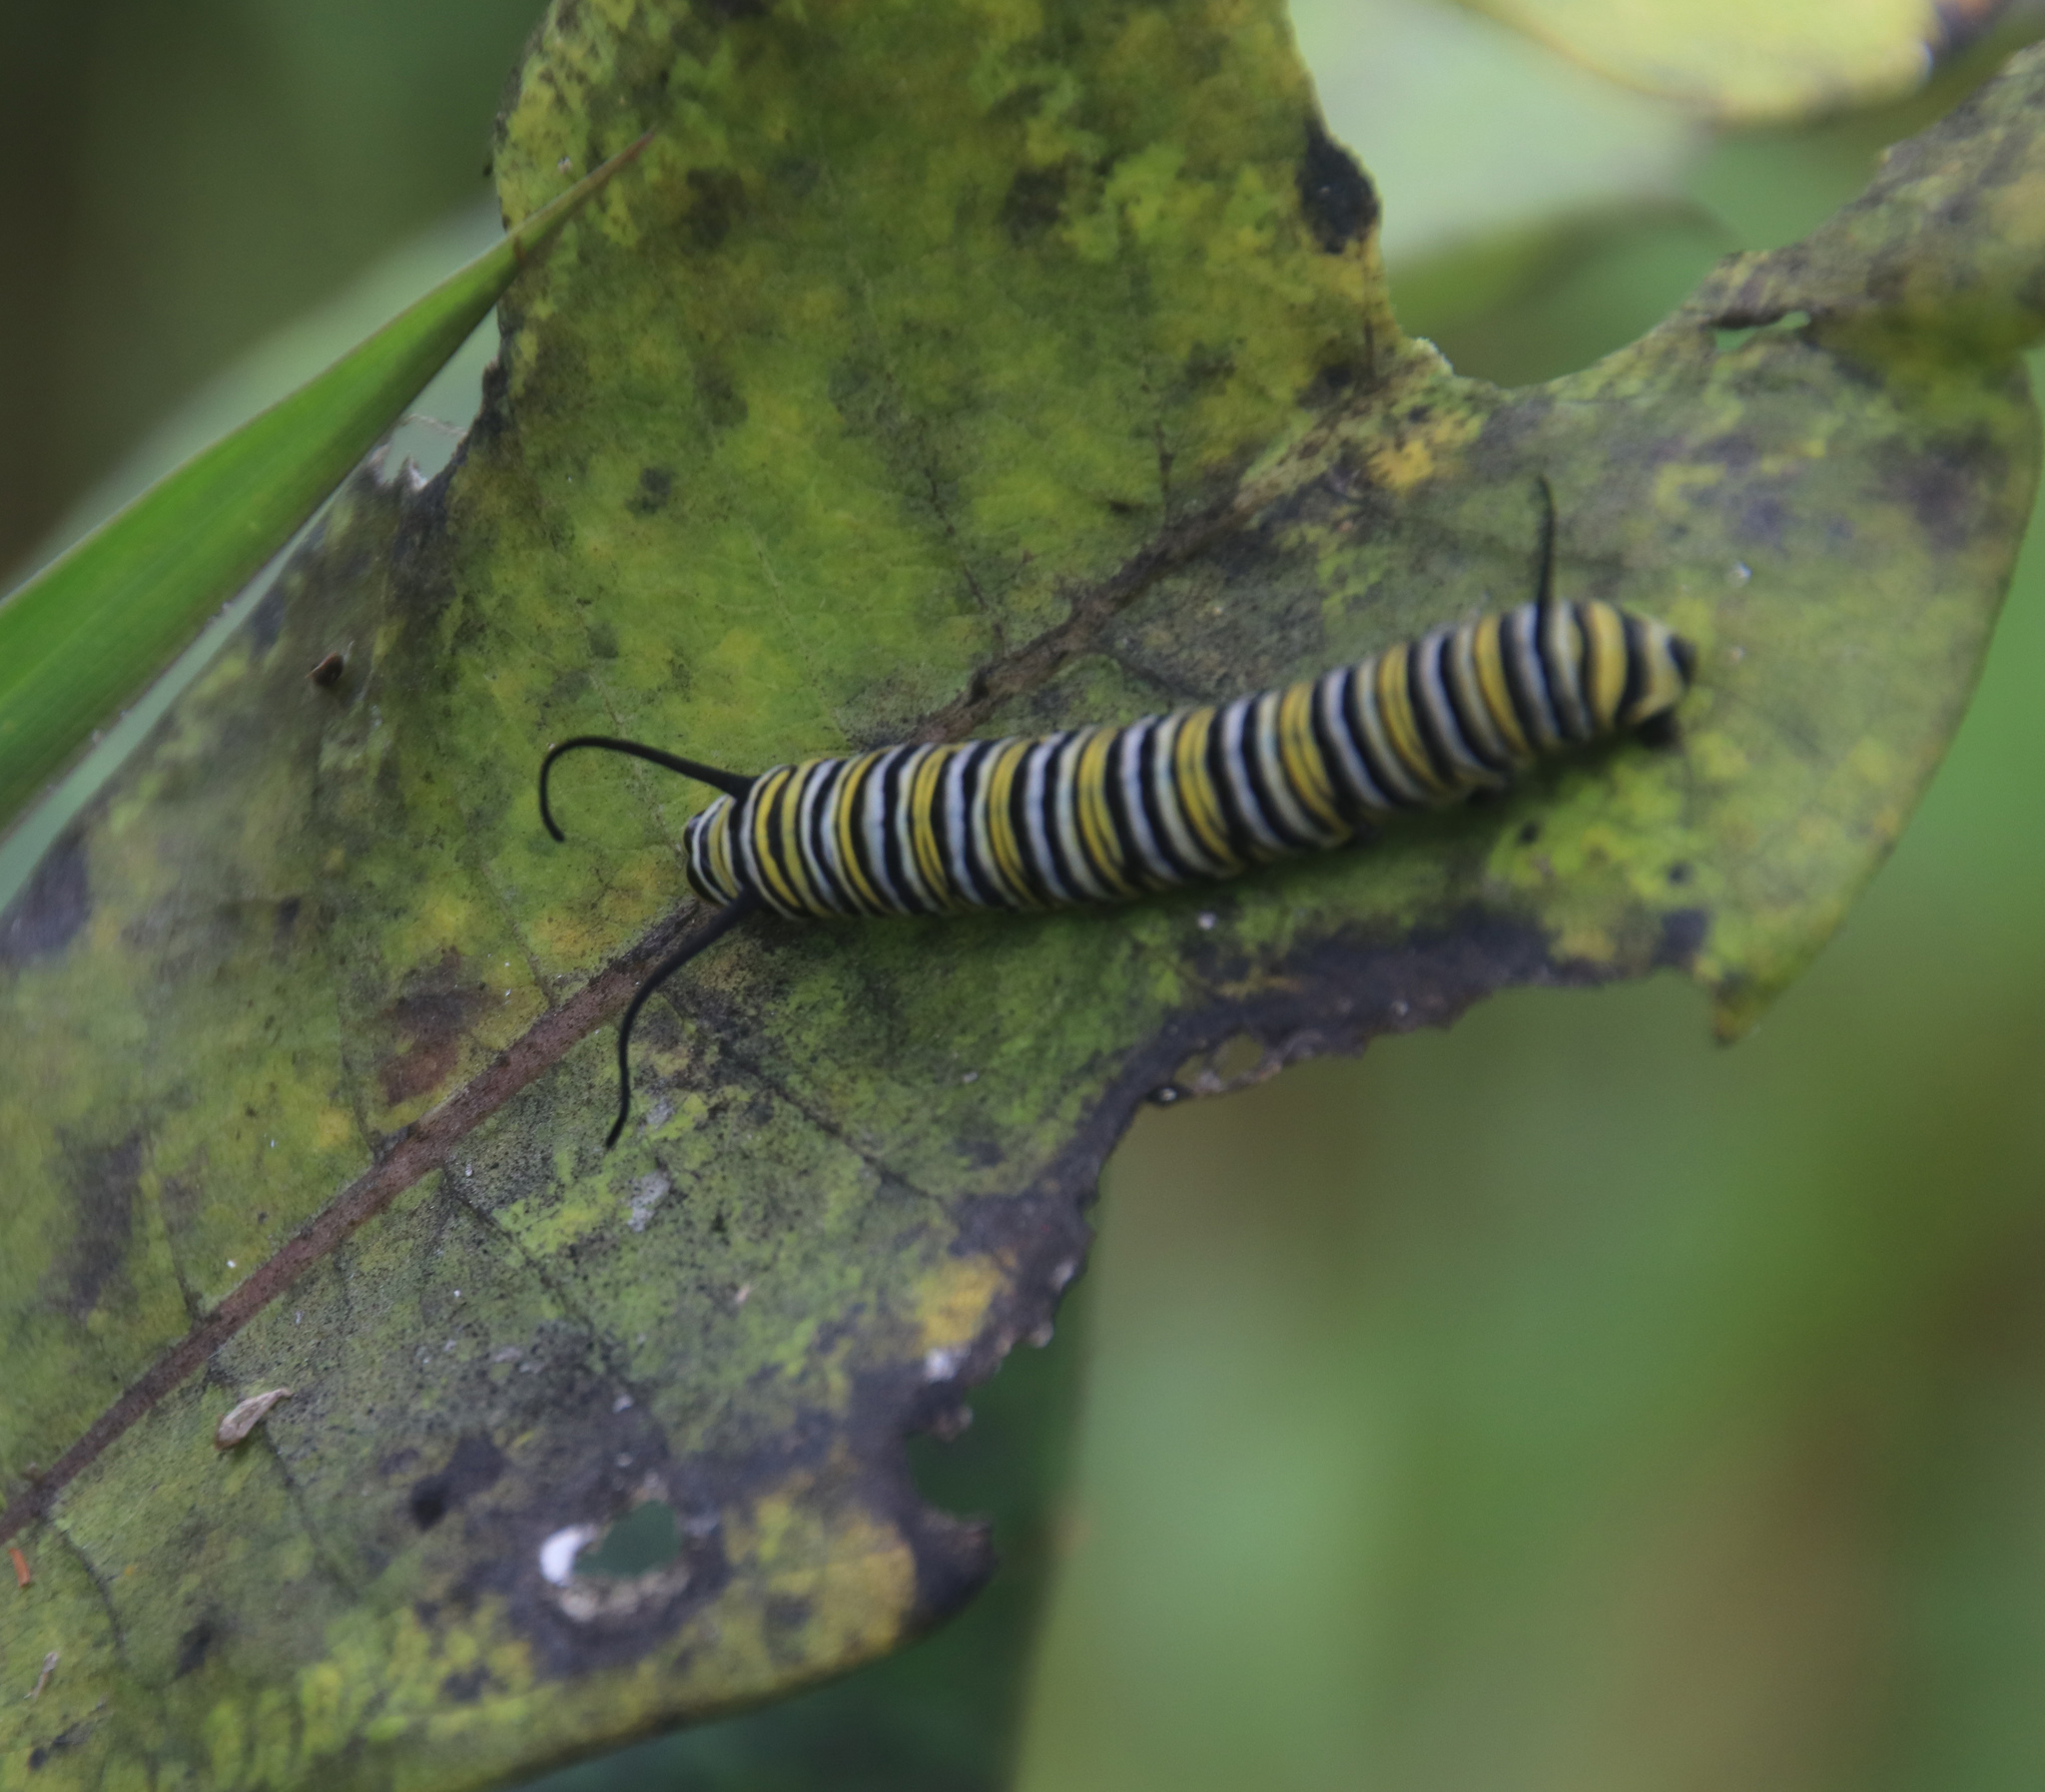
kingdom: Animalia
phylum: Arthropoda
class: Insecta
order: Lepidoptera
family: Nymphalidae
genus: Danaus
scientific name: Danaus plexippus
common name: Monarch
